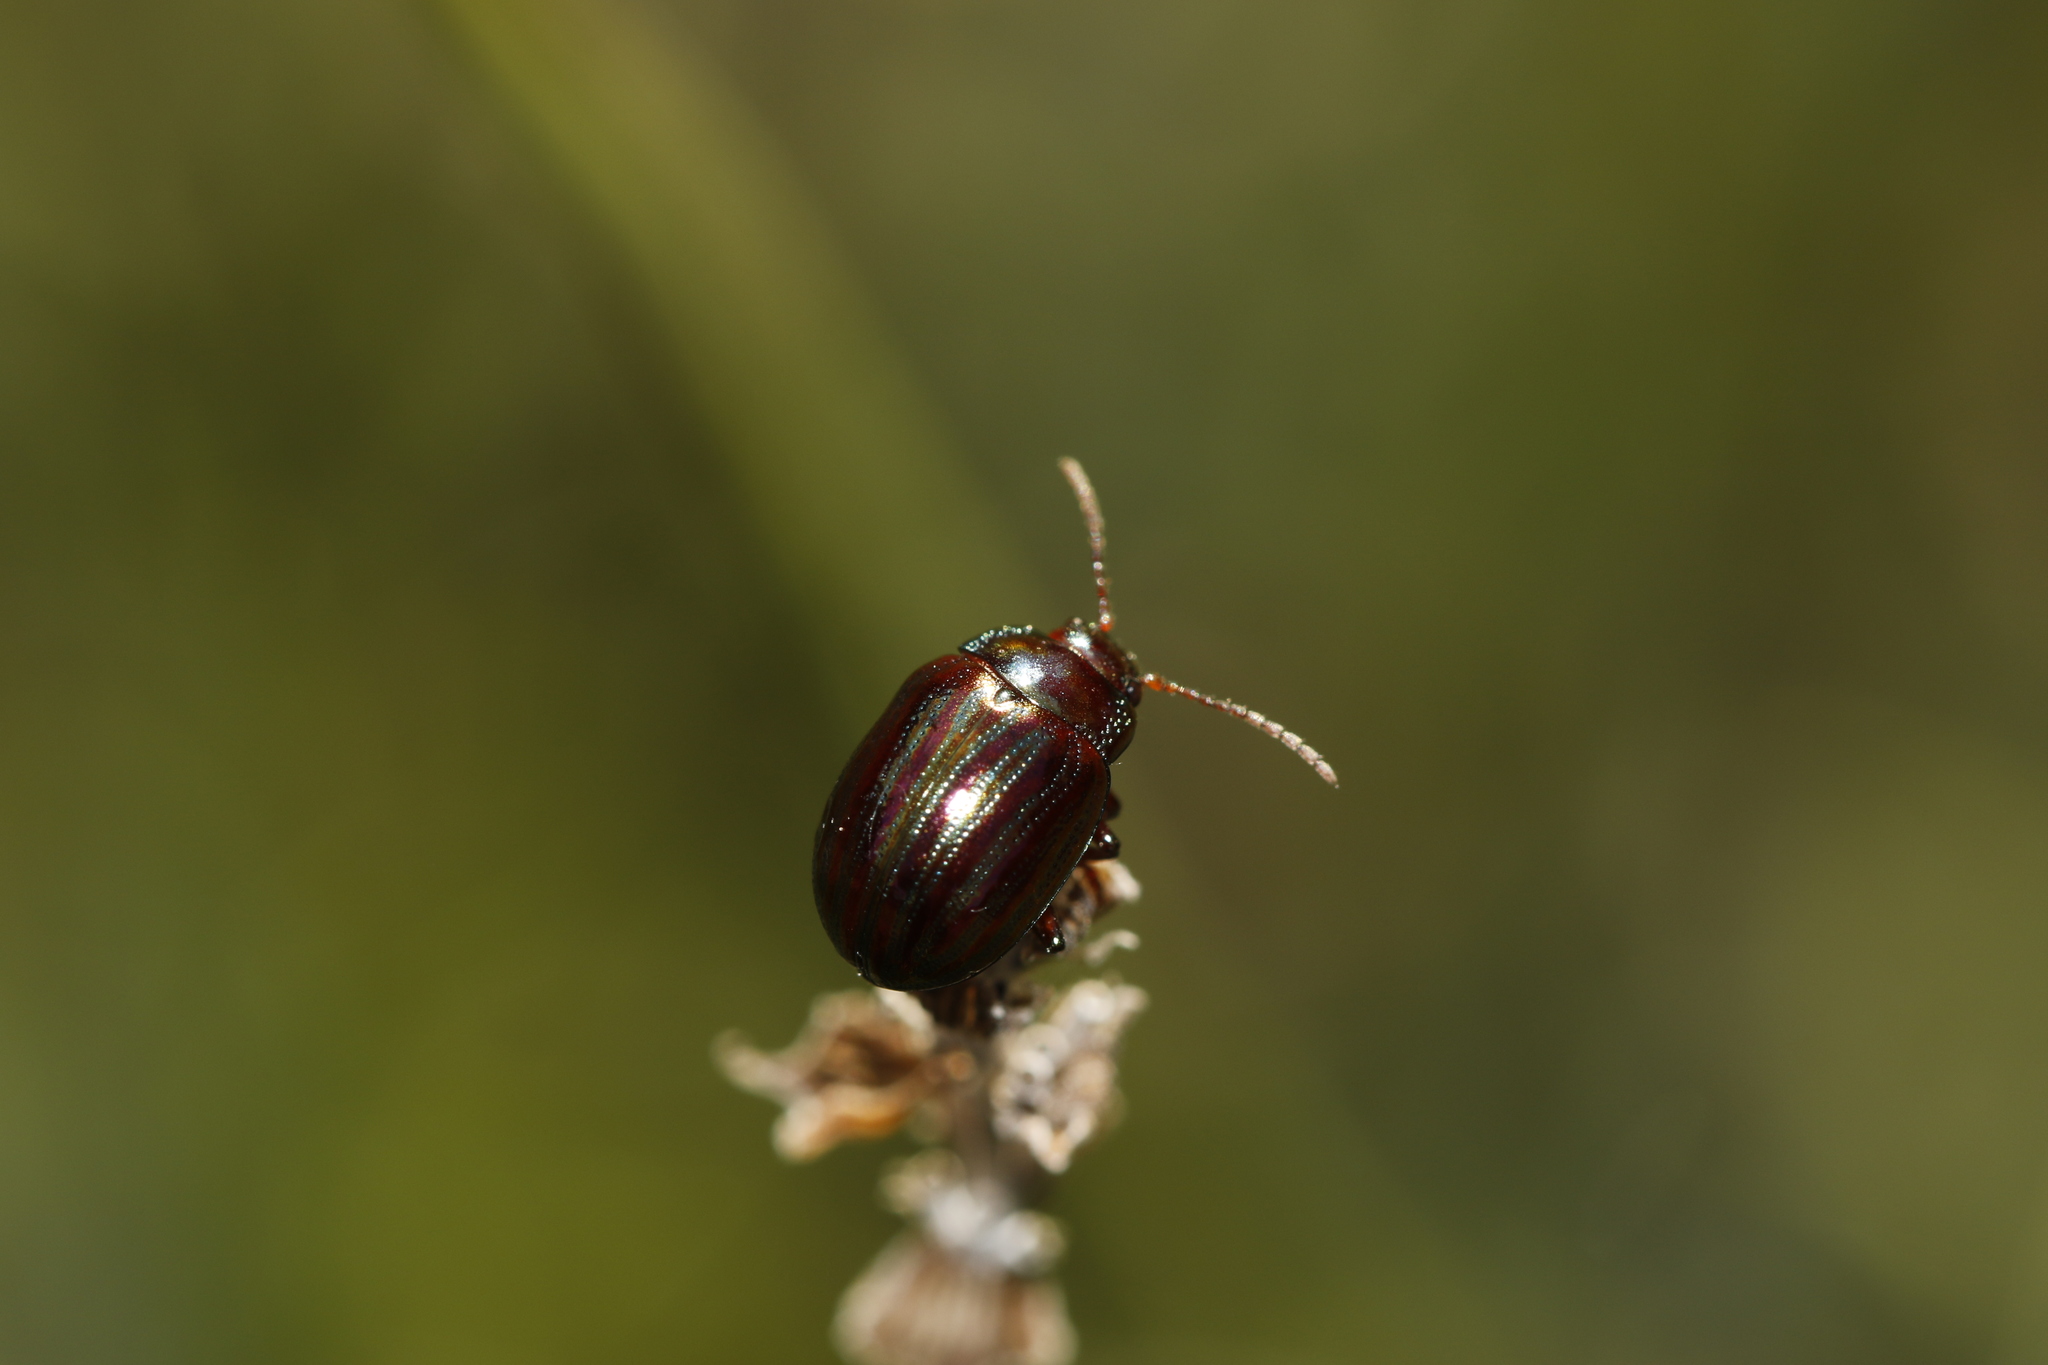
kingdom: Animalia
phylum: Arthropoda
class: Insecta
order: Coleoptera
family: Chrysomelidae
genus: Chrysolina
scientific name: Chrysolina americana
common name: Rosemary beetle
